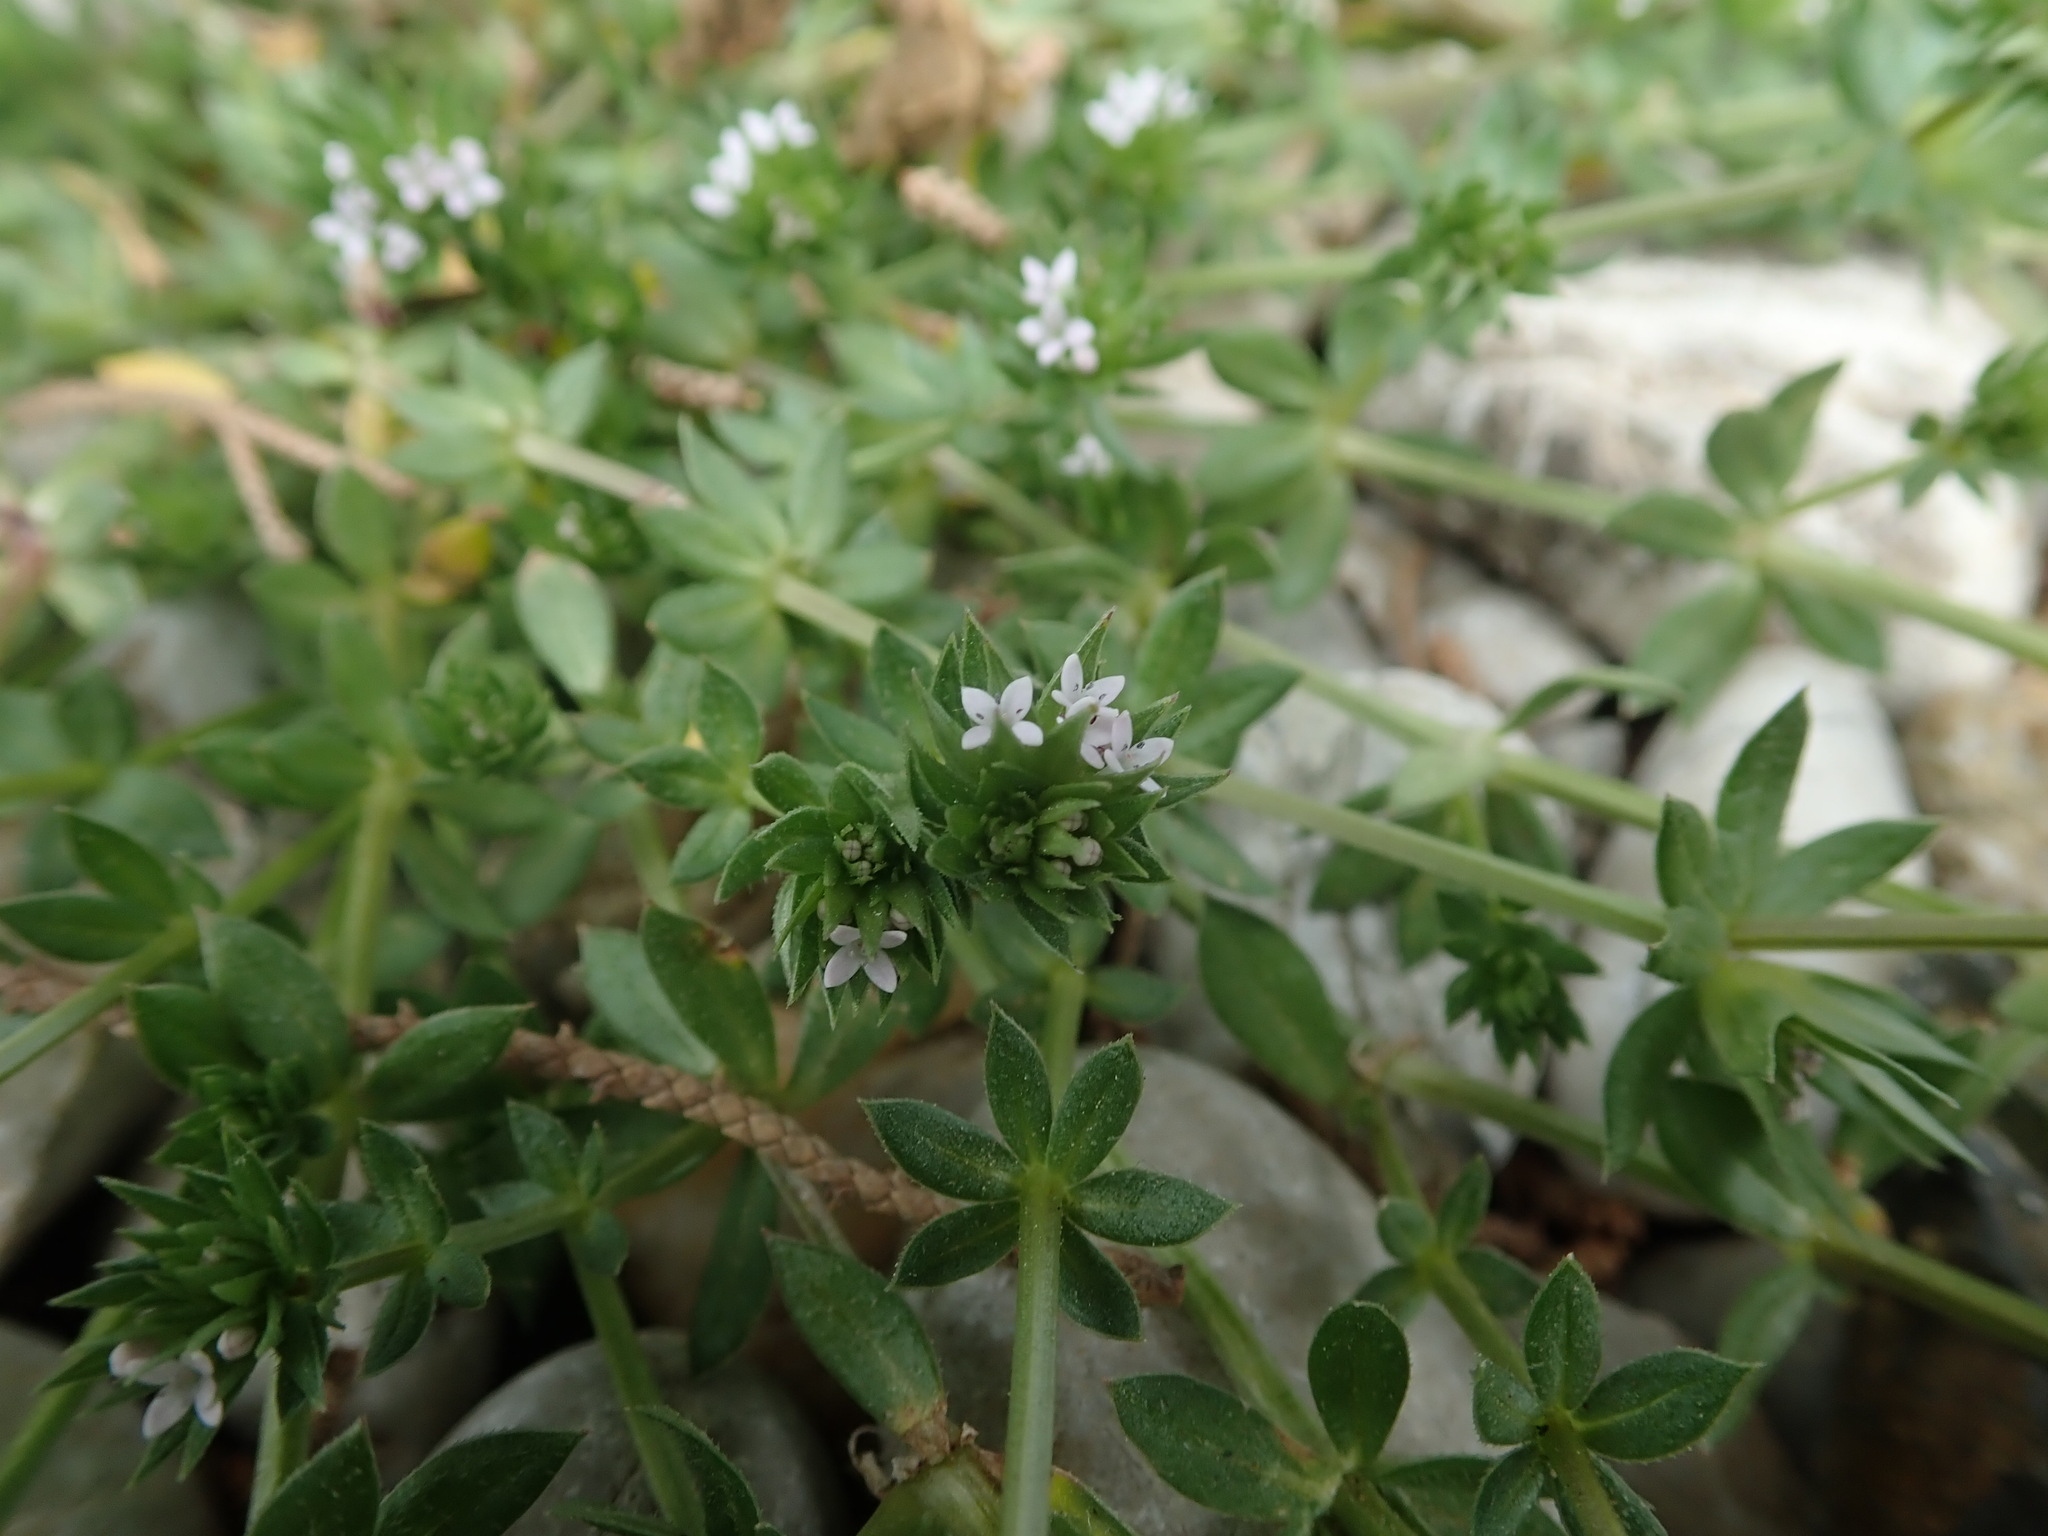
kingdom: Plantae
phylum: Tracheophyta
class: Magnoliopsida
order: Gentianales
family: Rubiaceae
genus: Sherardia
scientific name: Sherardia arvensis
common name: Field madder
